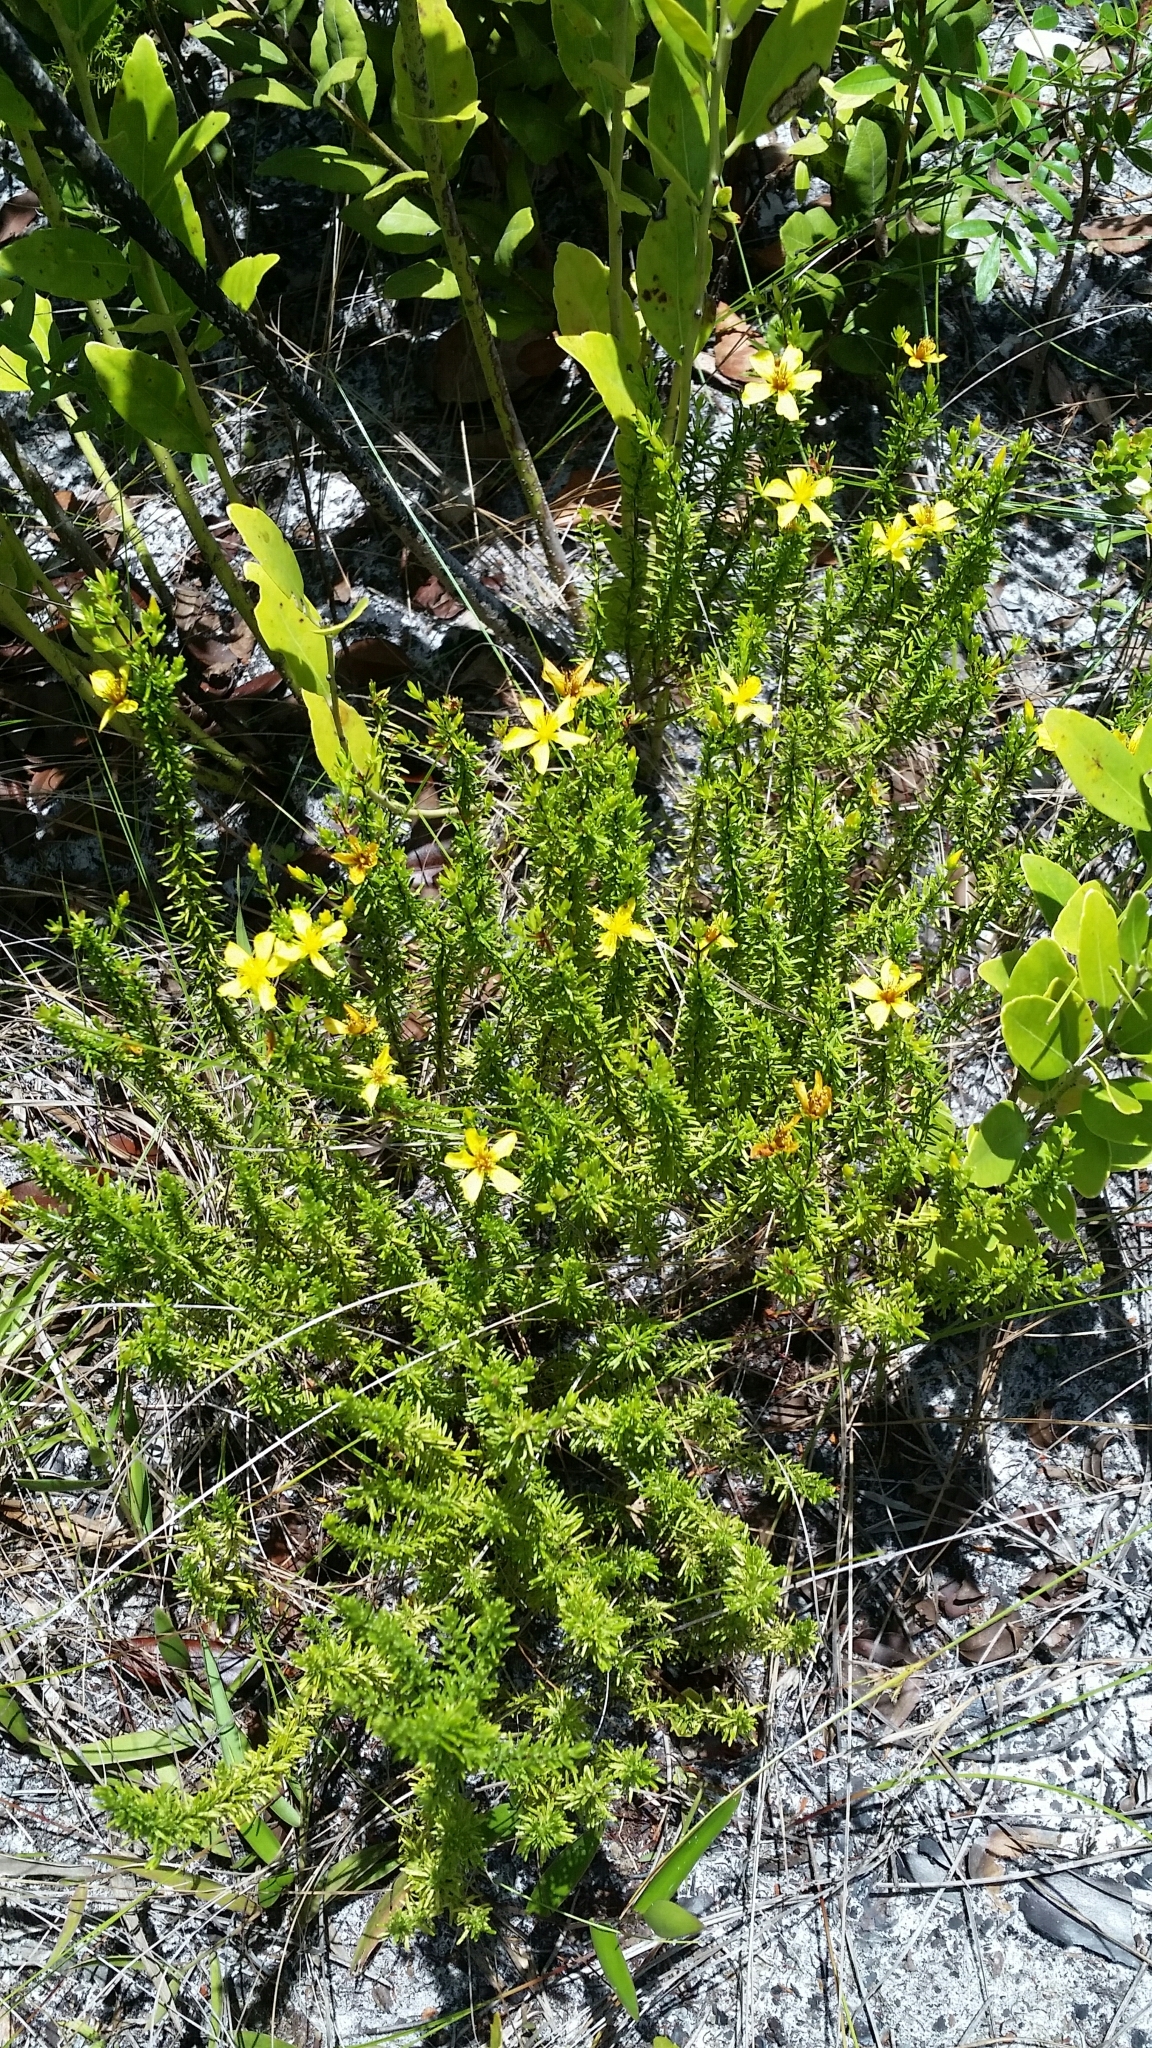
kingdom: Plantae
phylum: Tracheophyta
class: Magnoliopsida
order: Malpighiales
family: Hypericaceae
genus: Hypericum
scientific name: Hypericum tenuifolium
